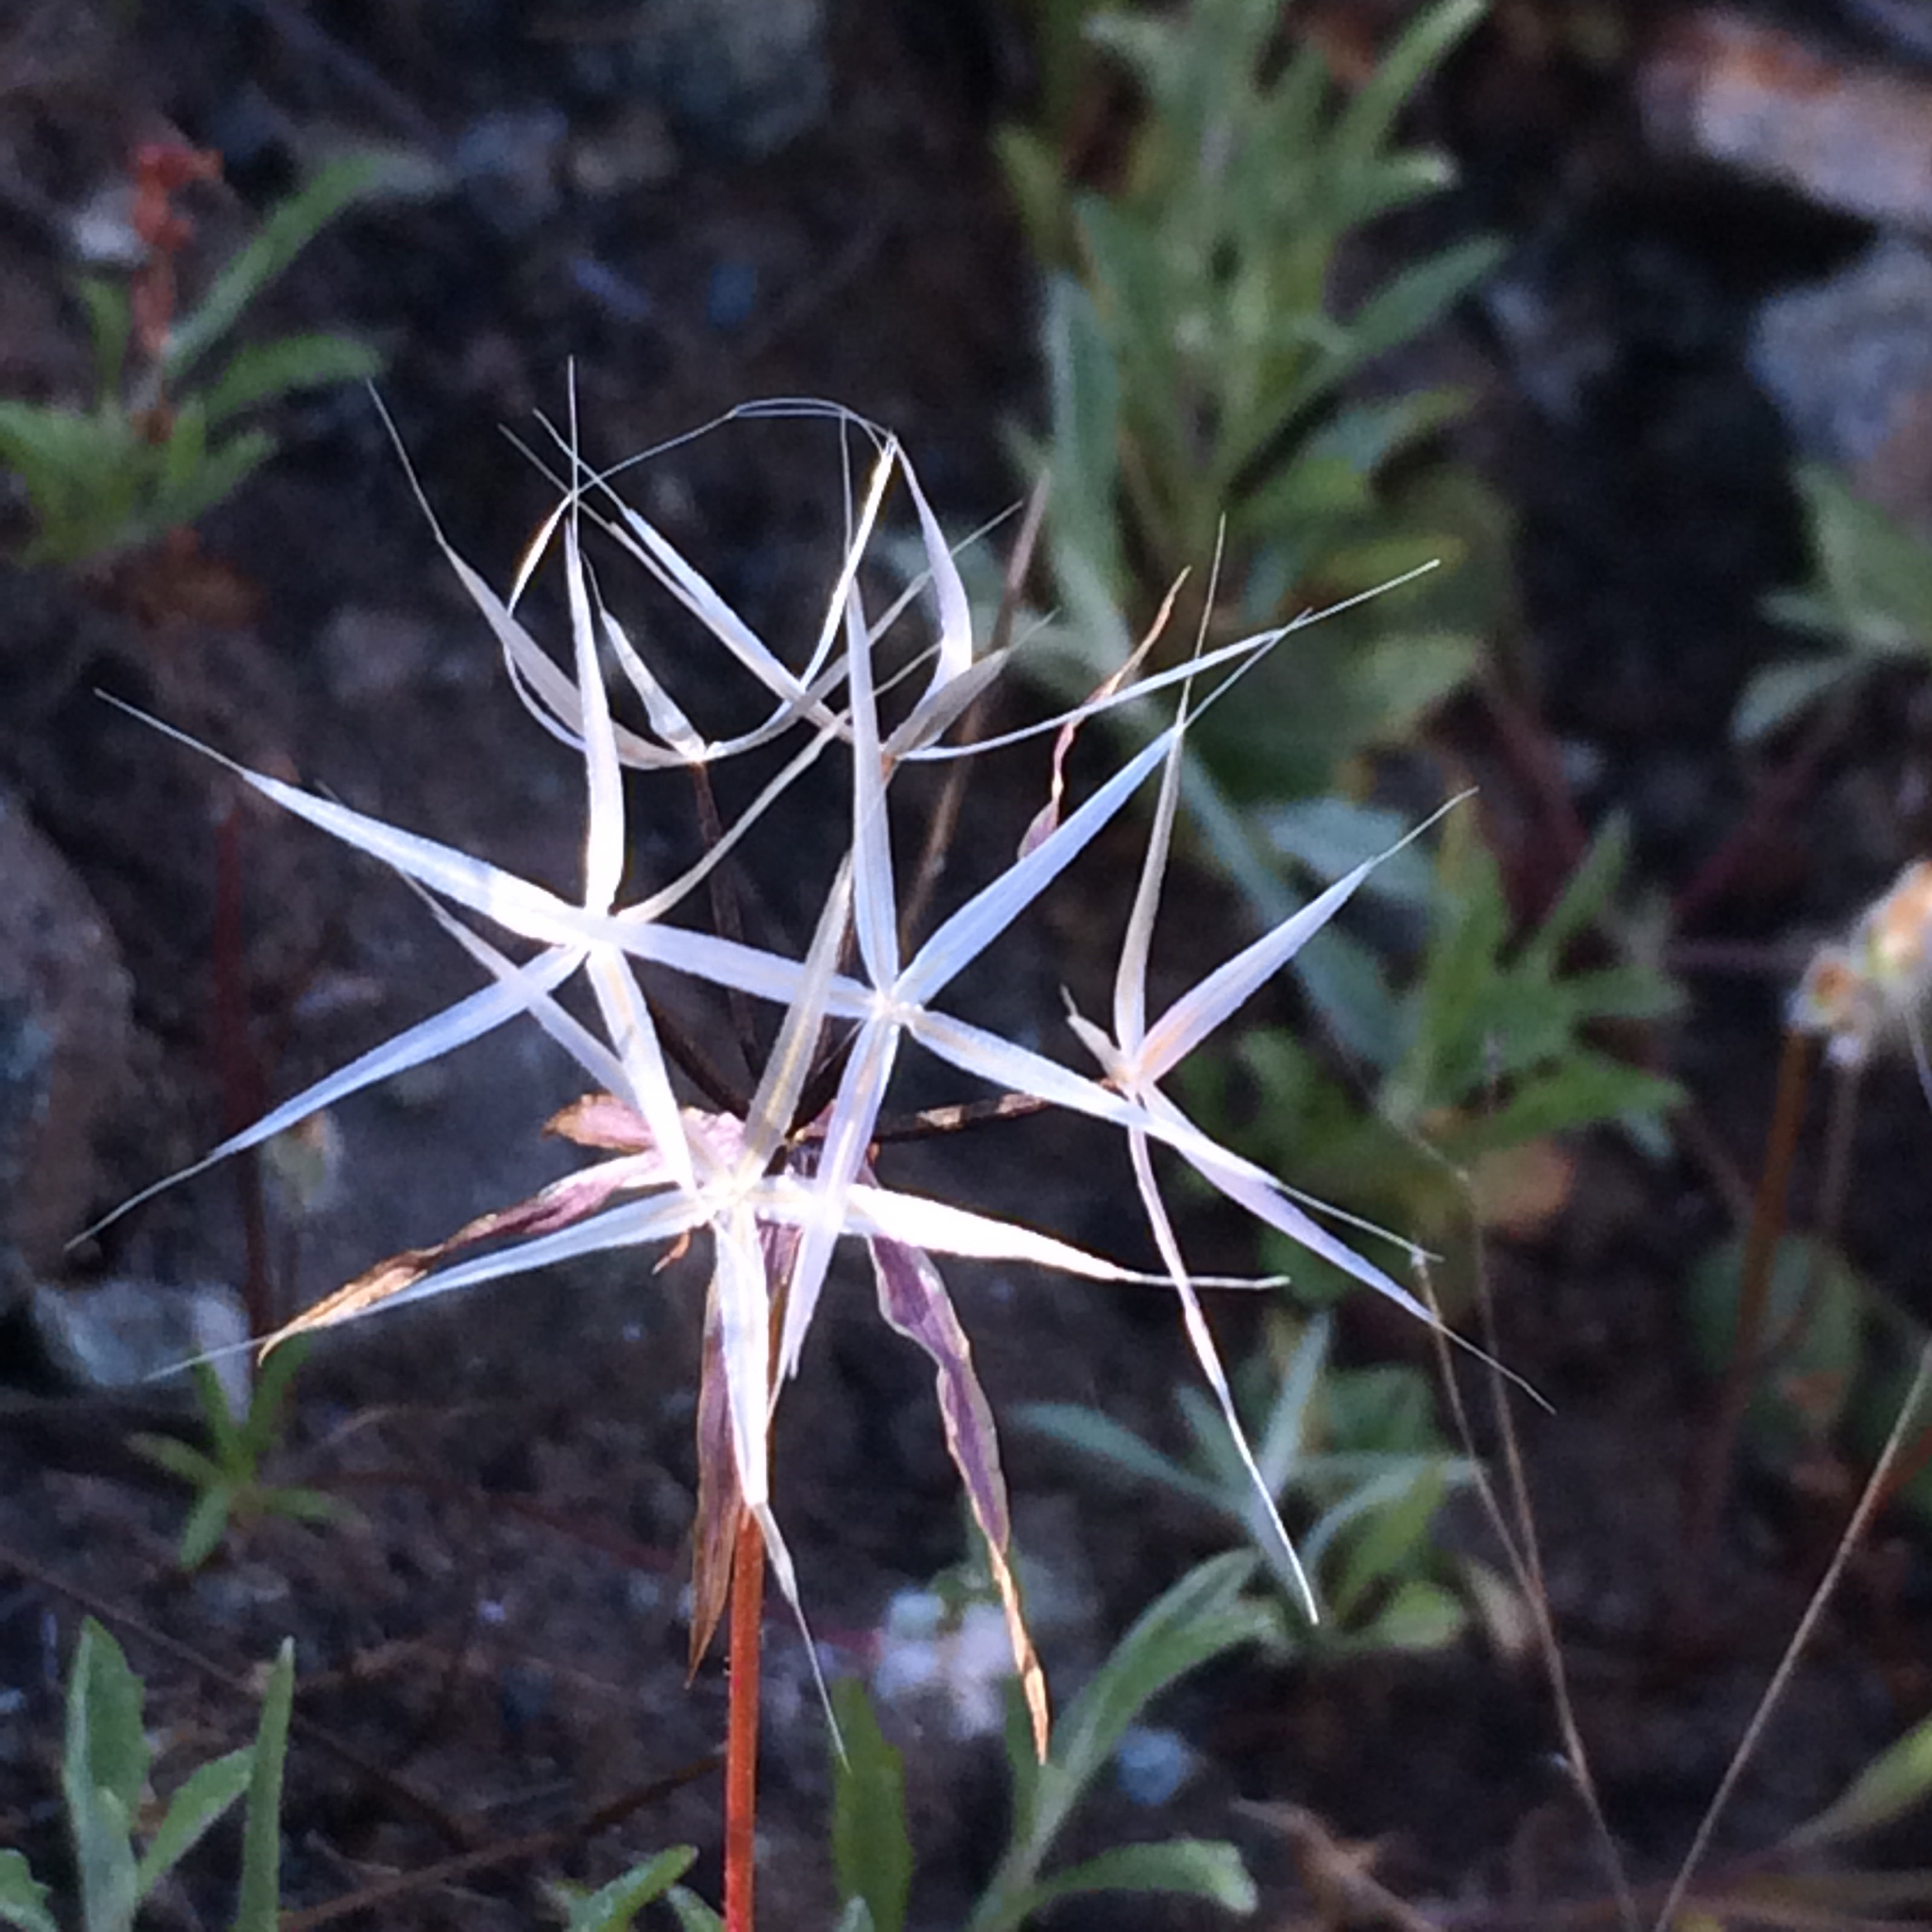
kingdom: Plantae
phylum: Tracheophyta
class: Magnoliopsida
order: Asterales
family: Asteraceae
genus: Microseris
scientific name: Microseris lindleyi
